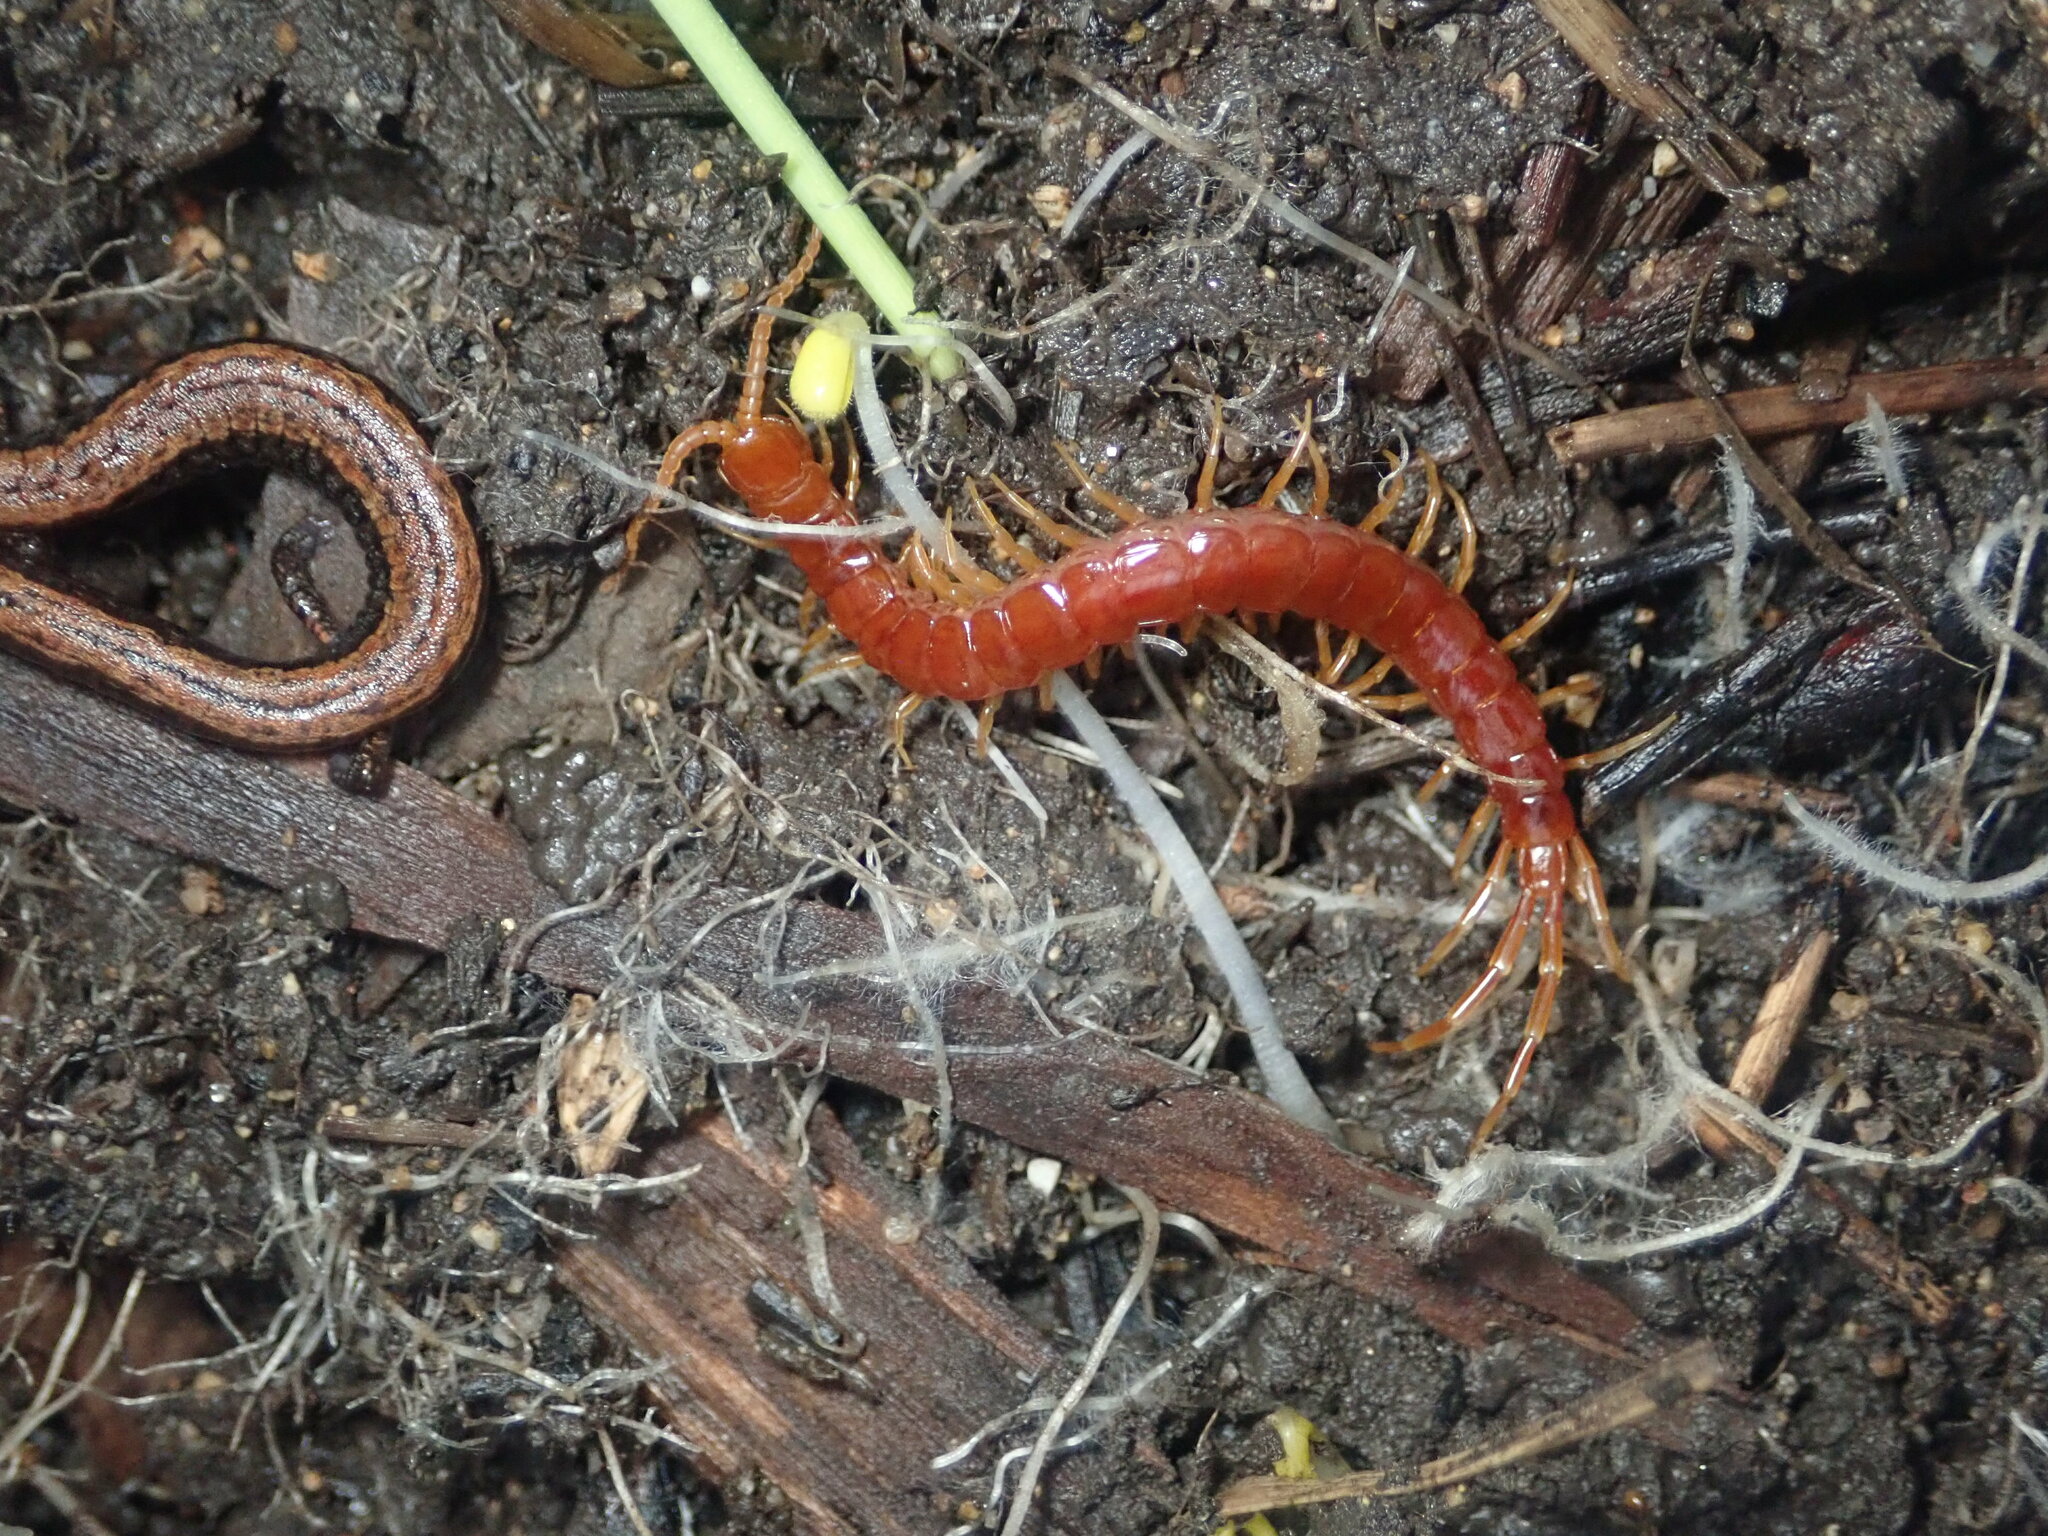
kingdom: Animalia
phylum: Arthropoda
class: Chilopoda
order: Scolopendromorpha
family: Scolopocryptopidae
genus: Scolopocryptops
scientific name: Scolopocryptops spinicaudus
